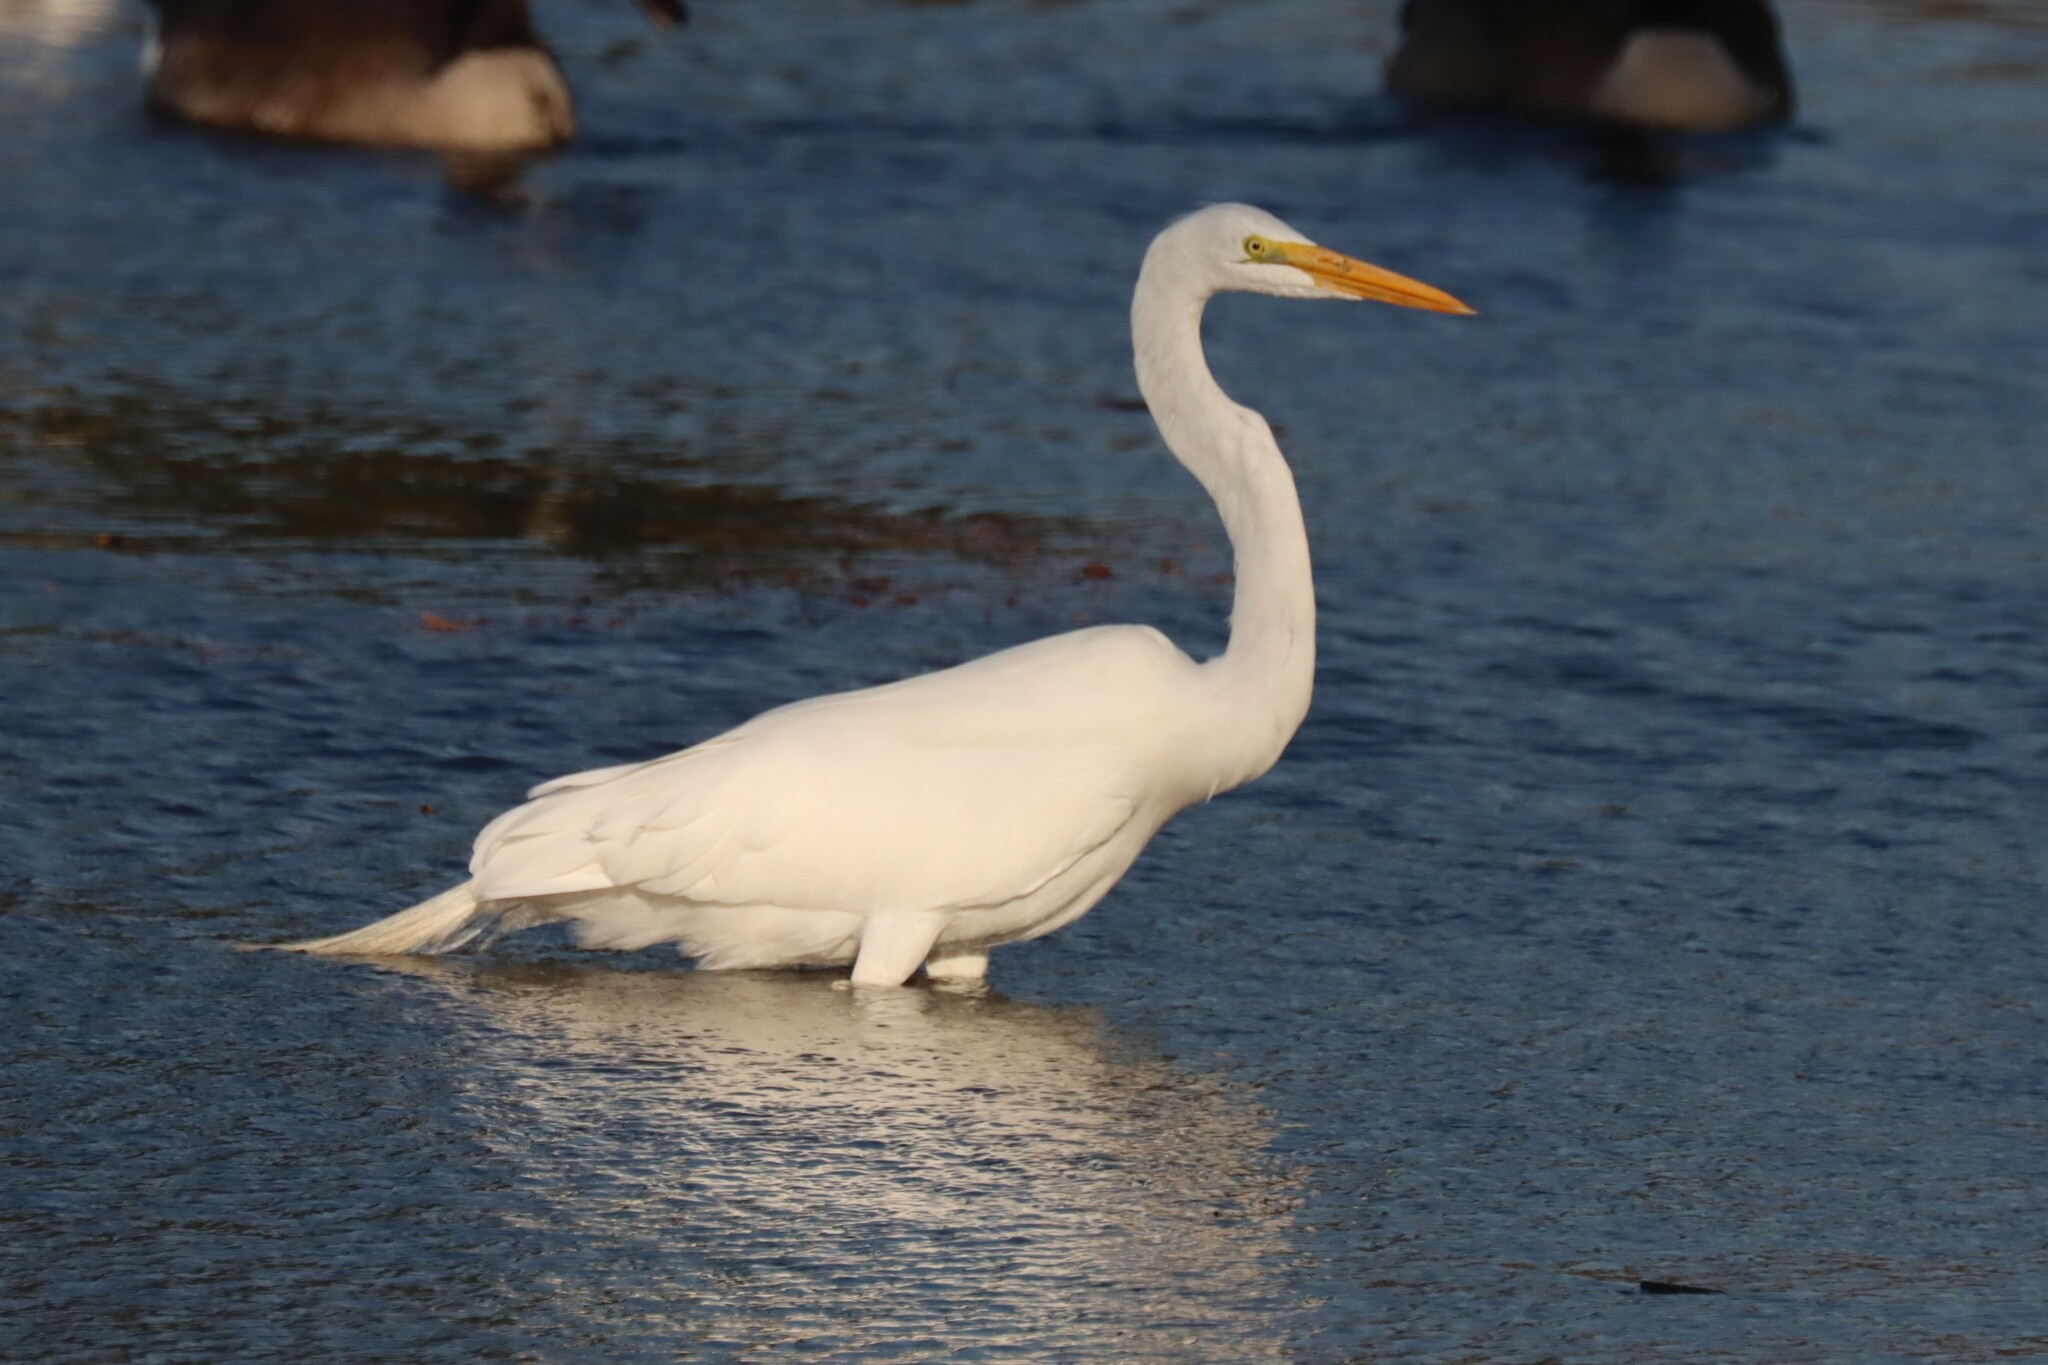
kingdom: Animalia
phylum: Chordata
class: Aves
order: Pelecaniformes
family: Ardeidae
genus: Ardea
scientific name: Ardea alba
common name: Great egret
